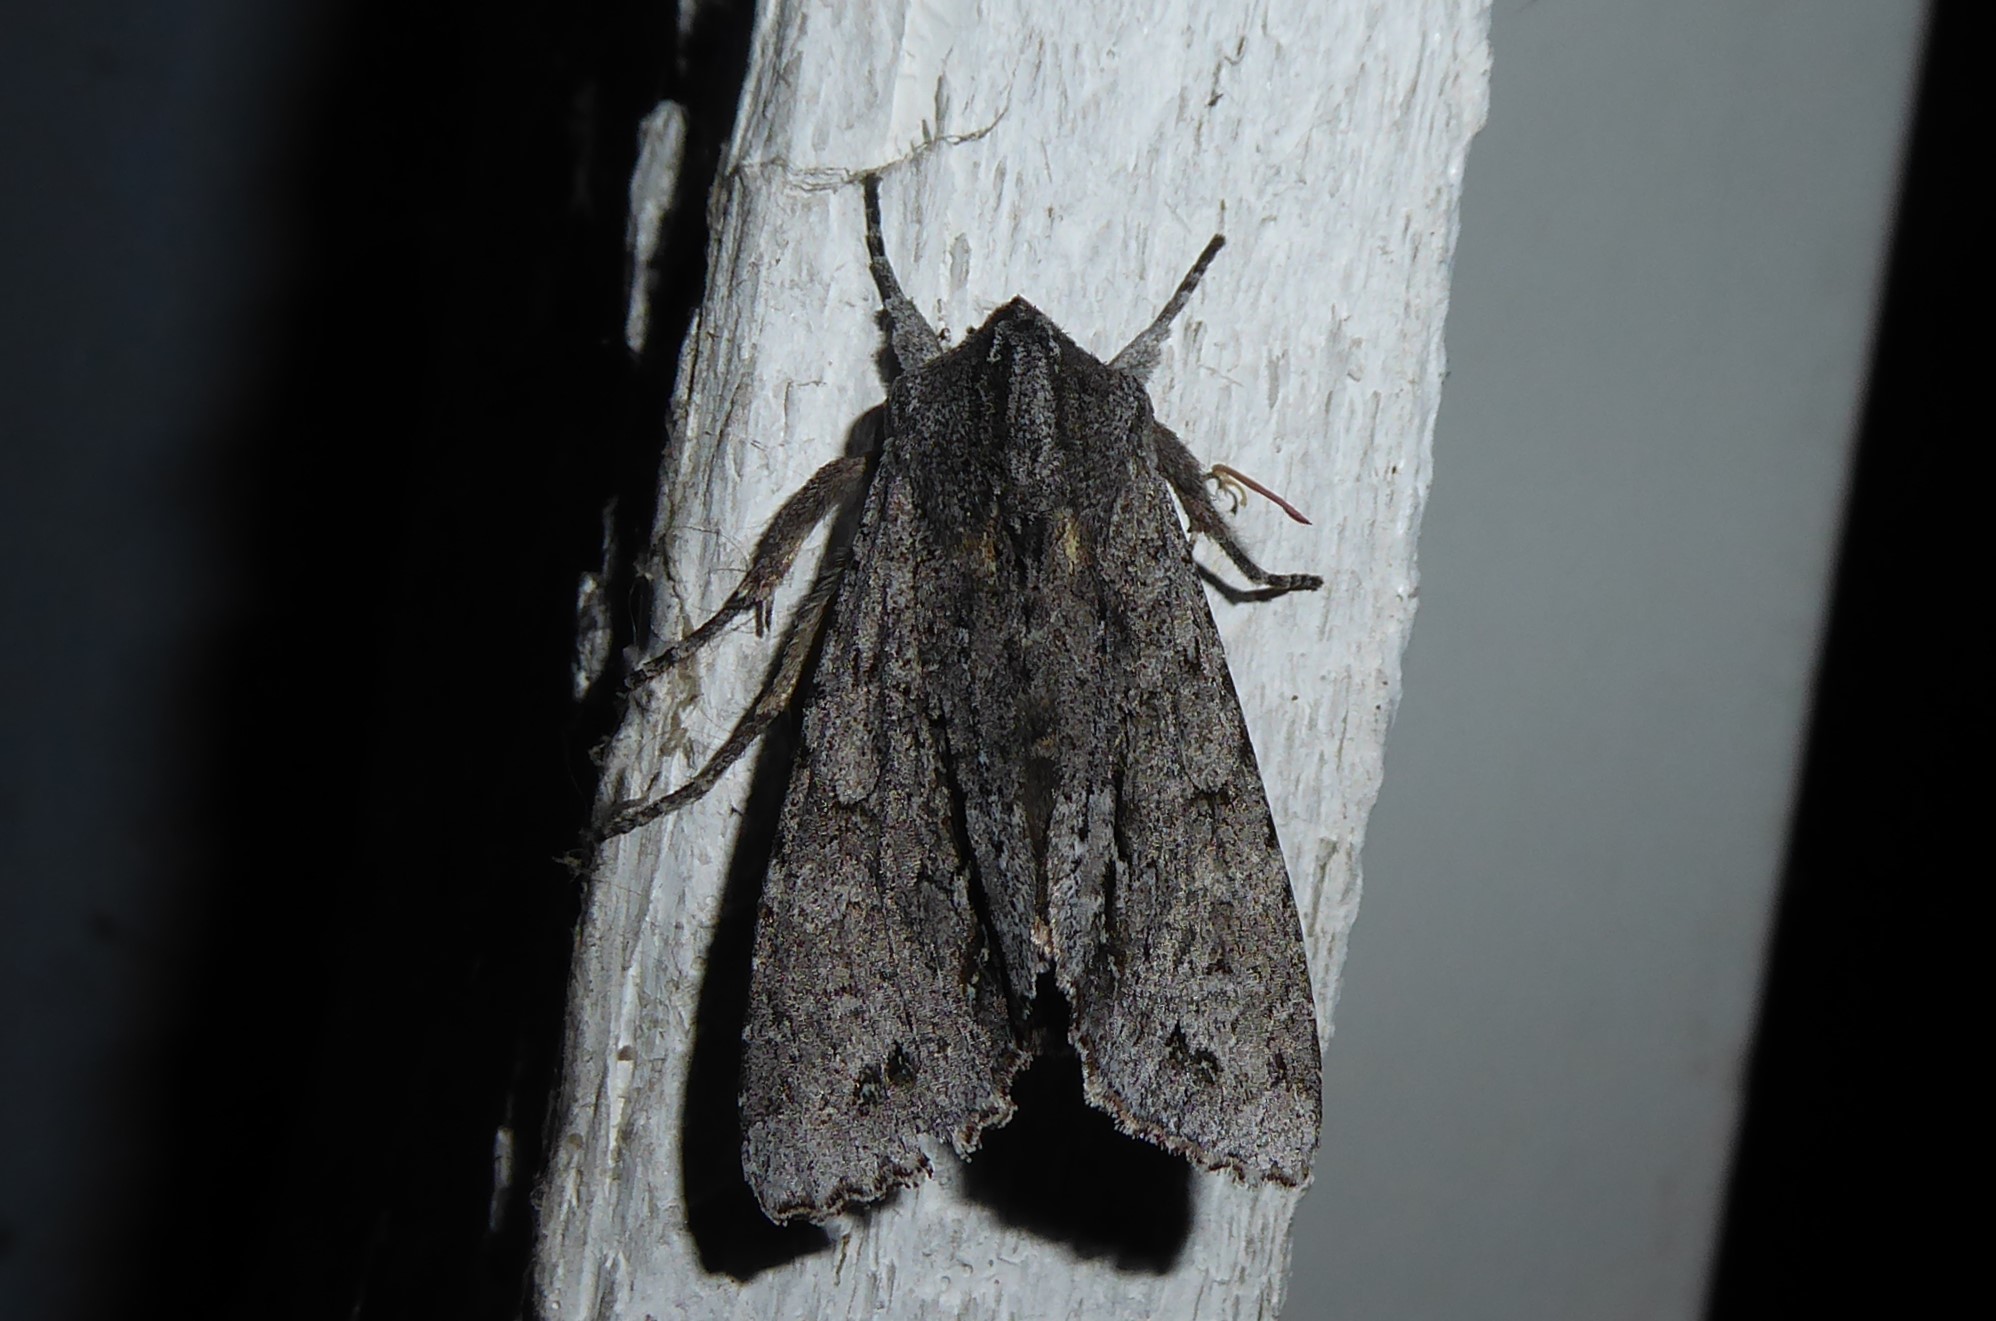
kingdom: Animalia
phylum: Arthropoda
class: Insecta
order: Lepidoptera
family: Noctuidae
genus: Ichneutica
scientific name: Ichneutica
